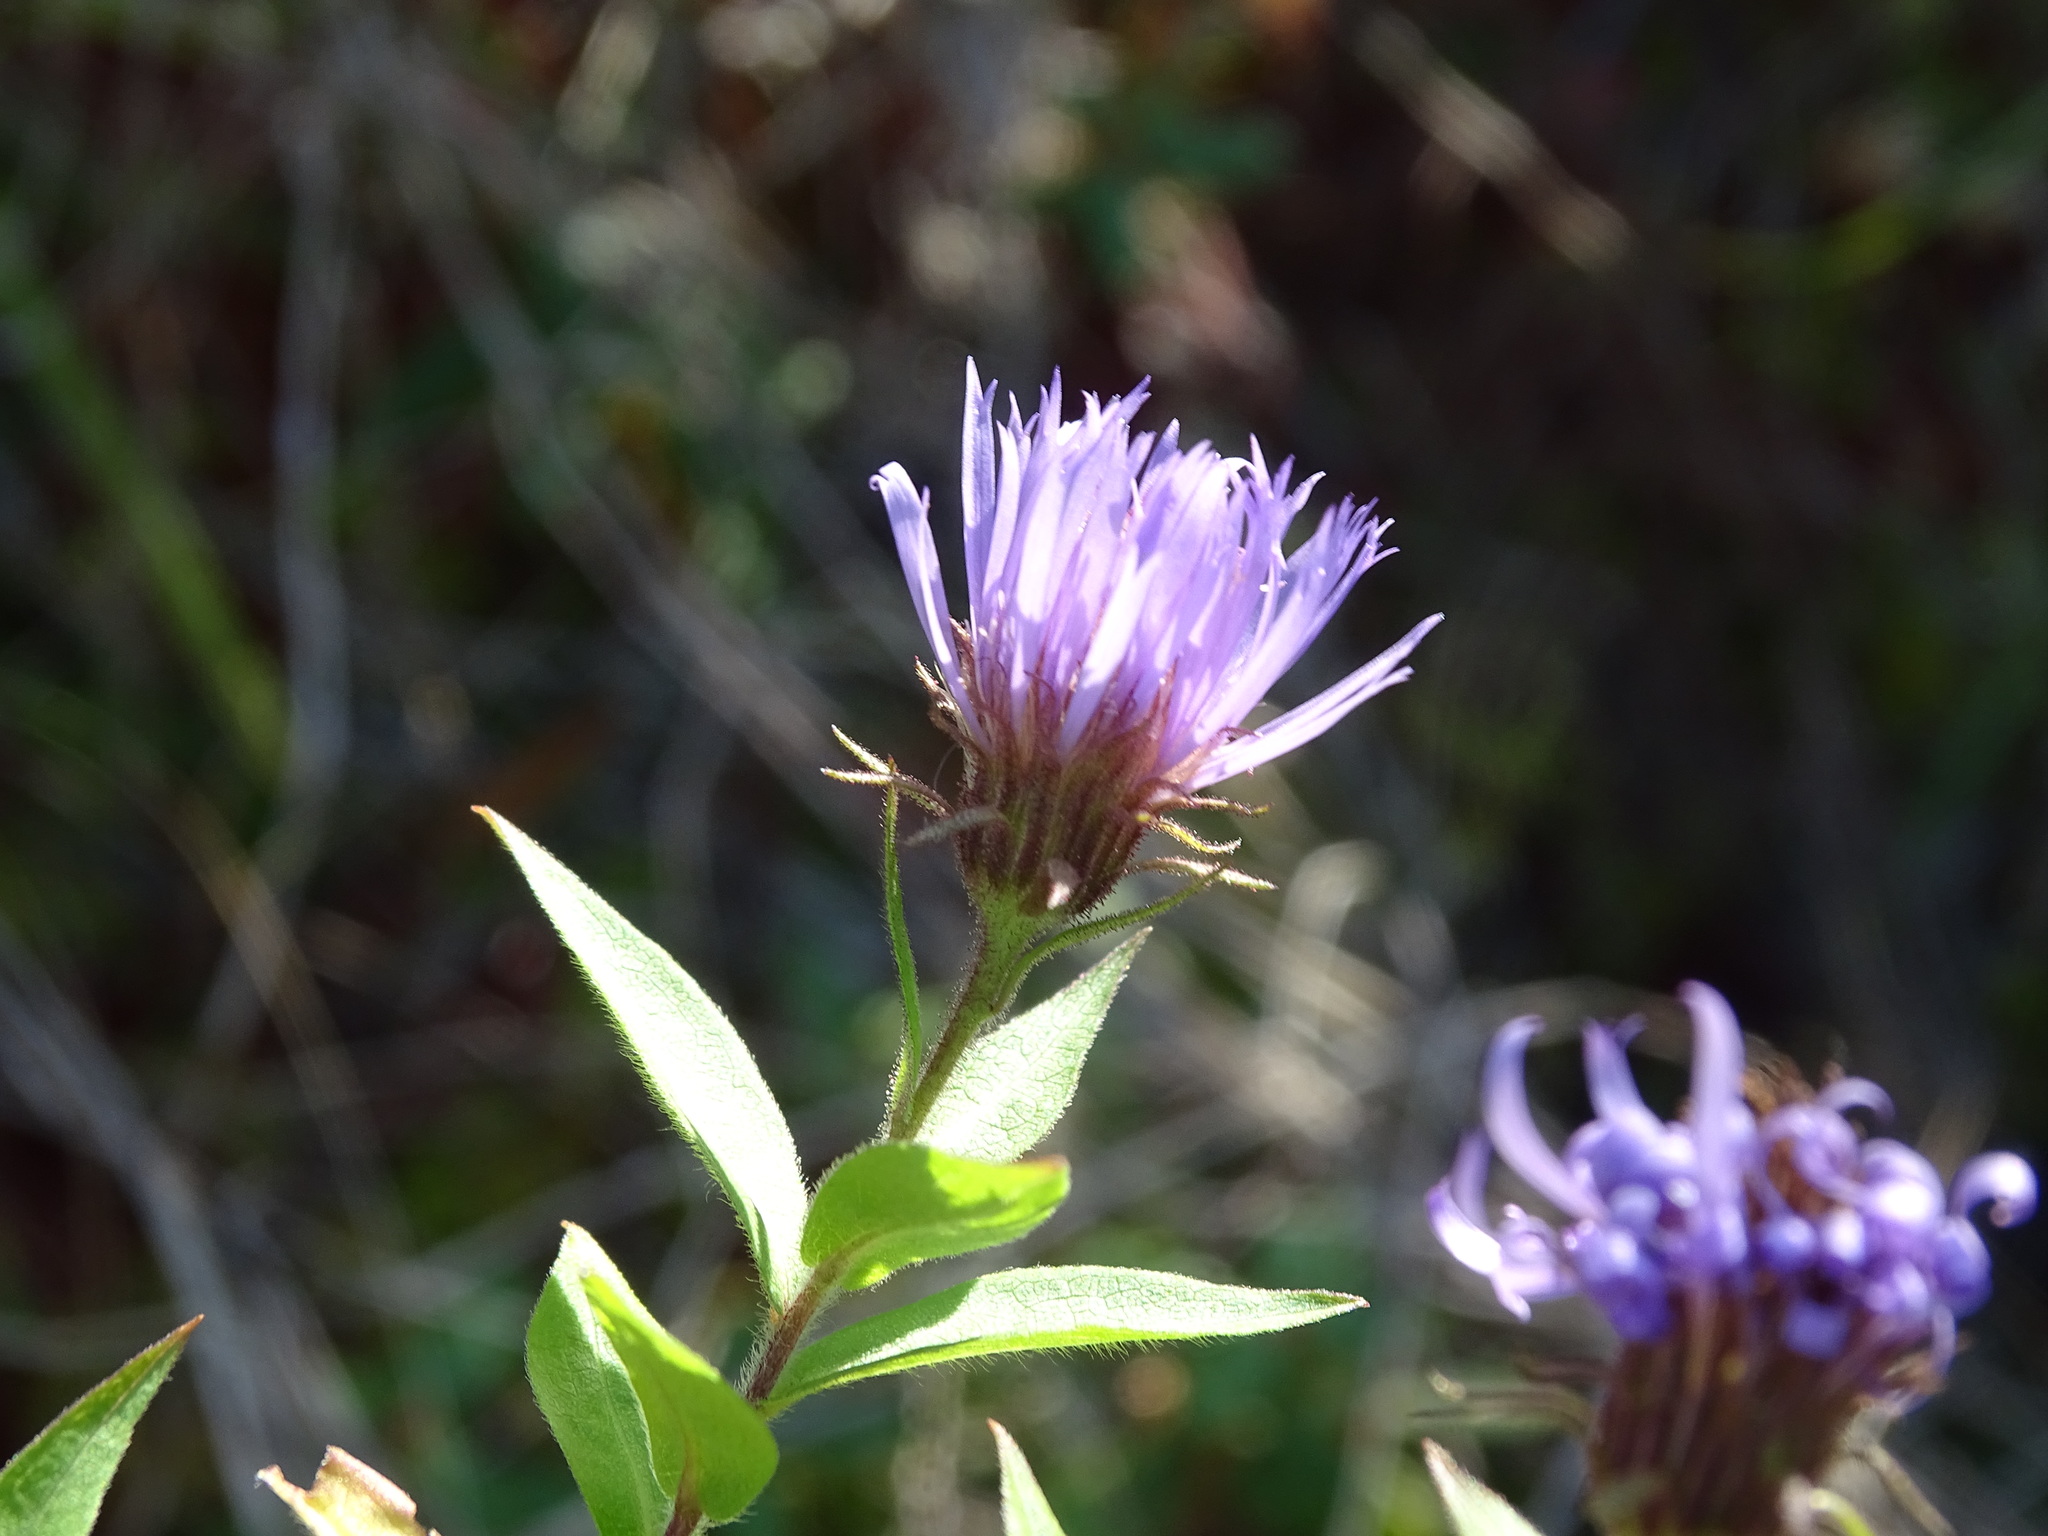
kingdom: Plantae
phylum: Tracheophyta
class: Magnoliopsida
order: Asterales
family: Asteraceae
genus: Canadanthus
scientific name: Canadanthus modestus
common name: Great northern aster
